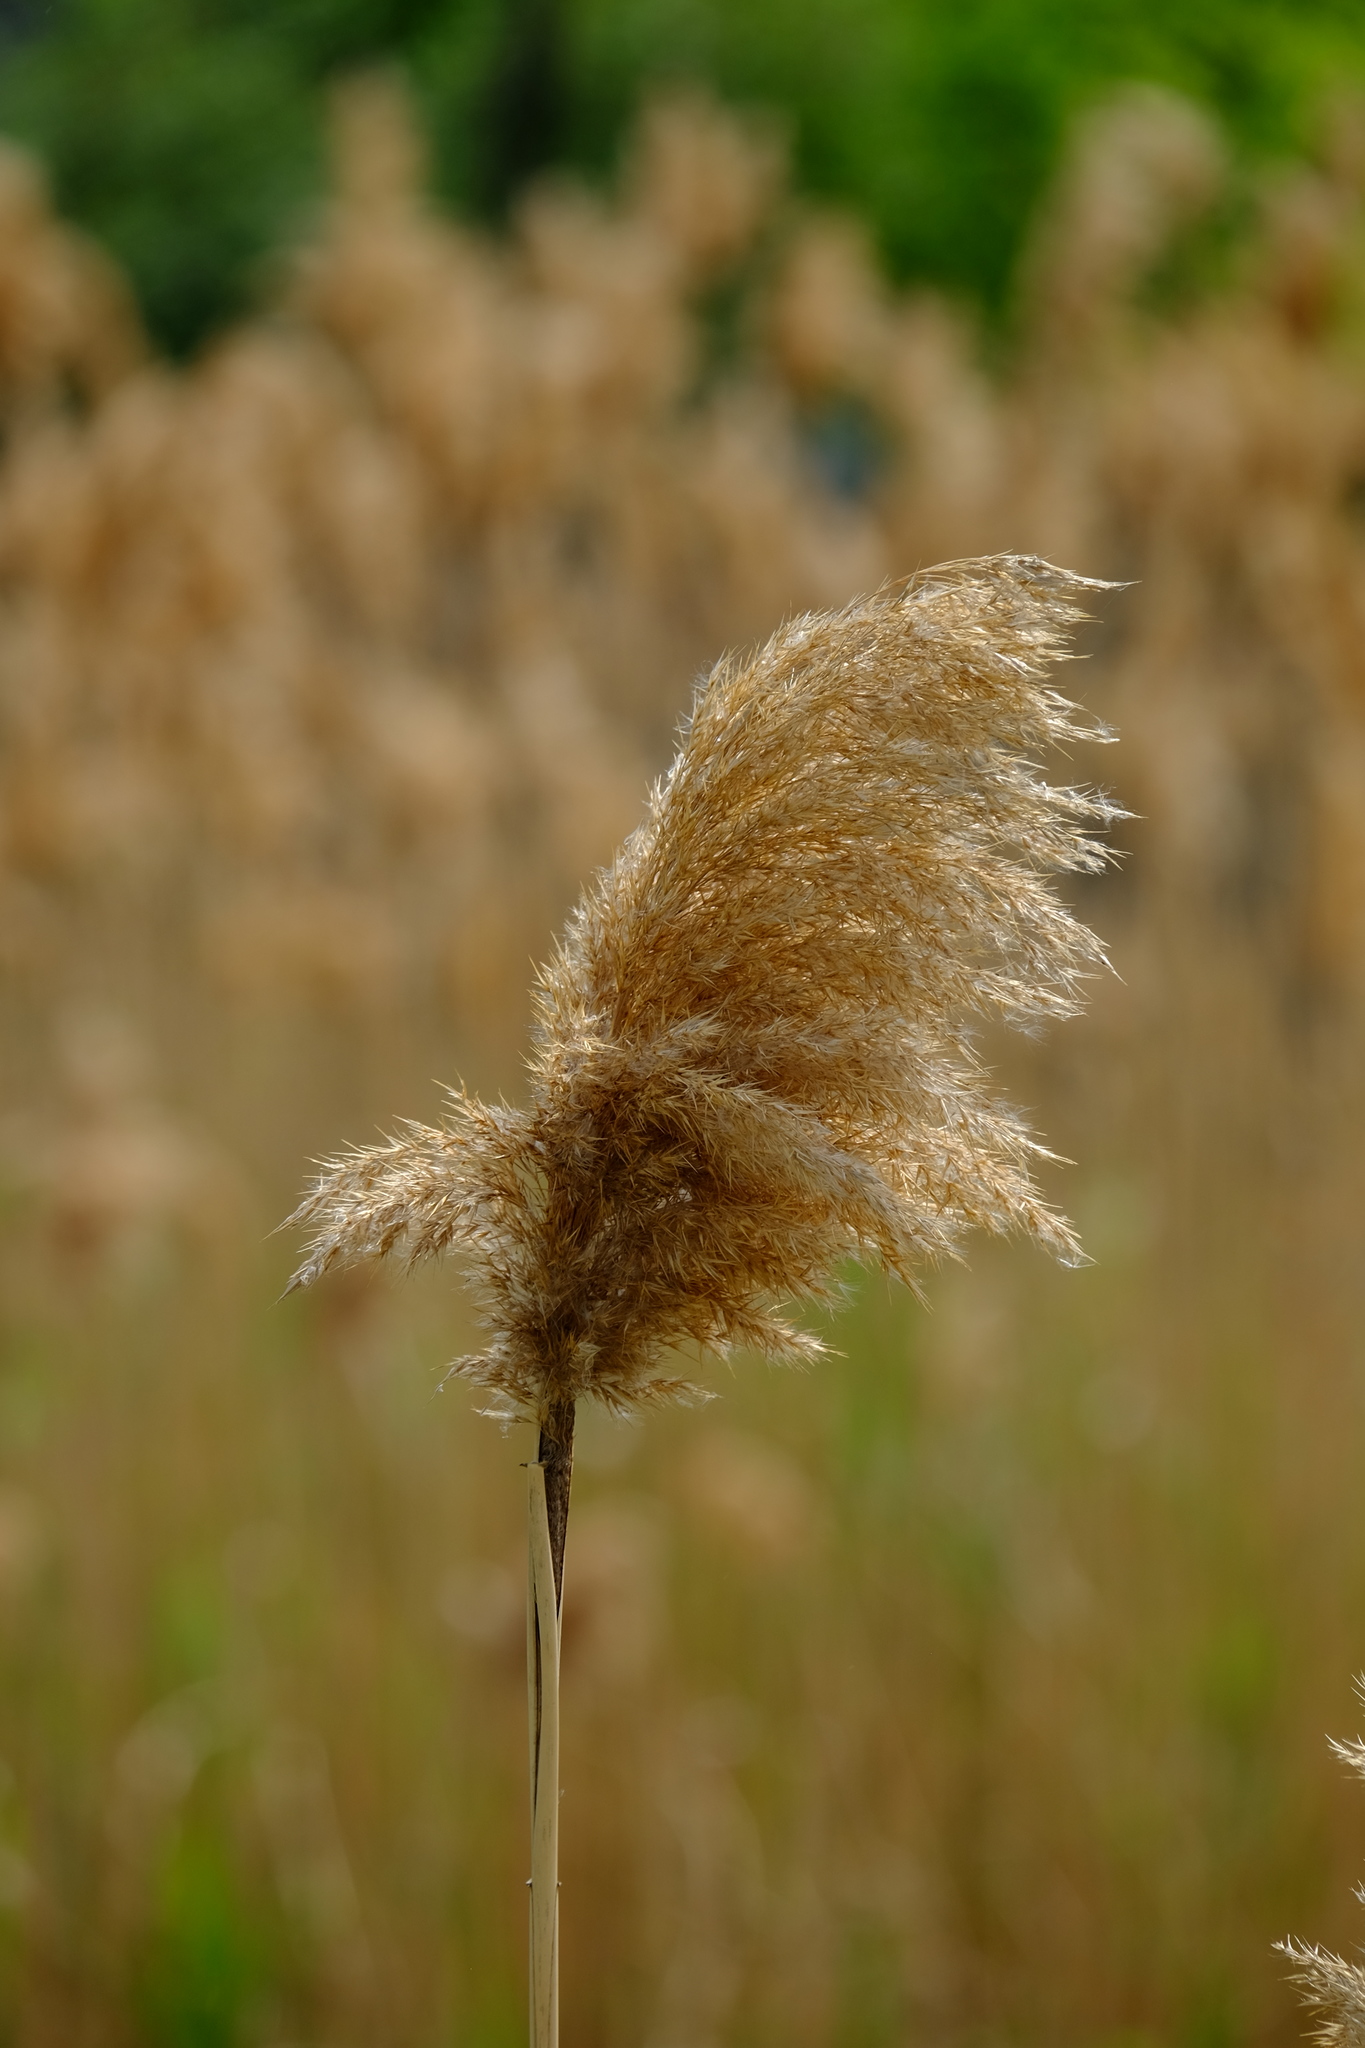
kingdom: Plantae
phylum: Tracheophyta
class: Liliopsida
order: Poales
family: Poaceae
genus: Phragmites
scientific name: Phragmites australis
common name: Common reed
